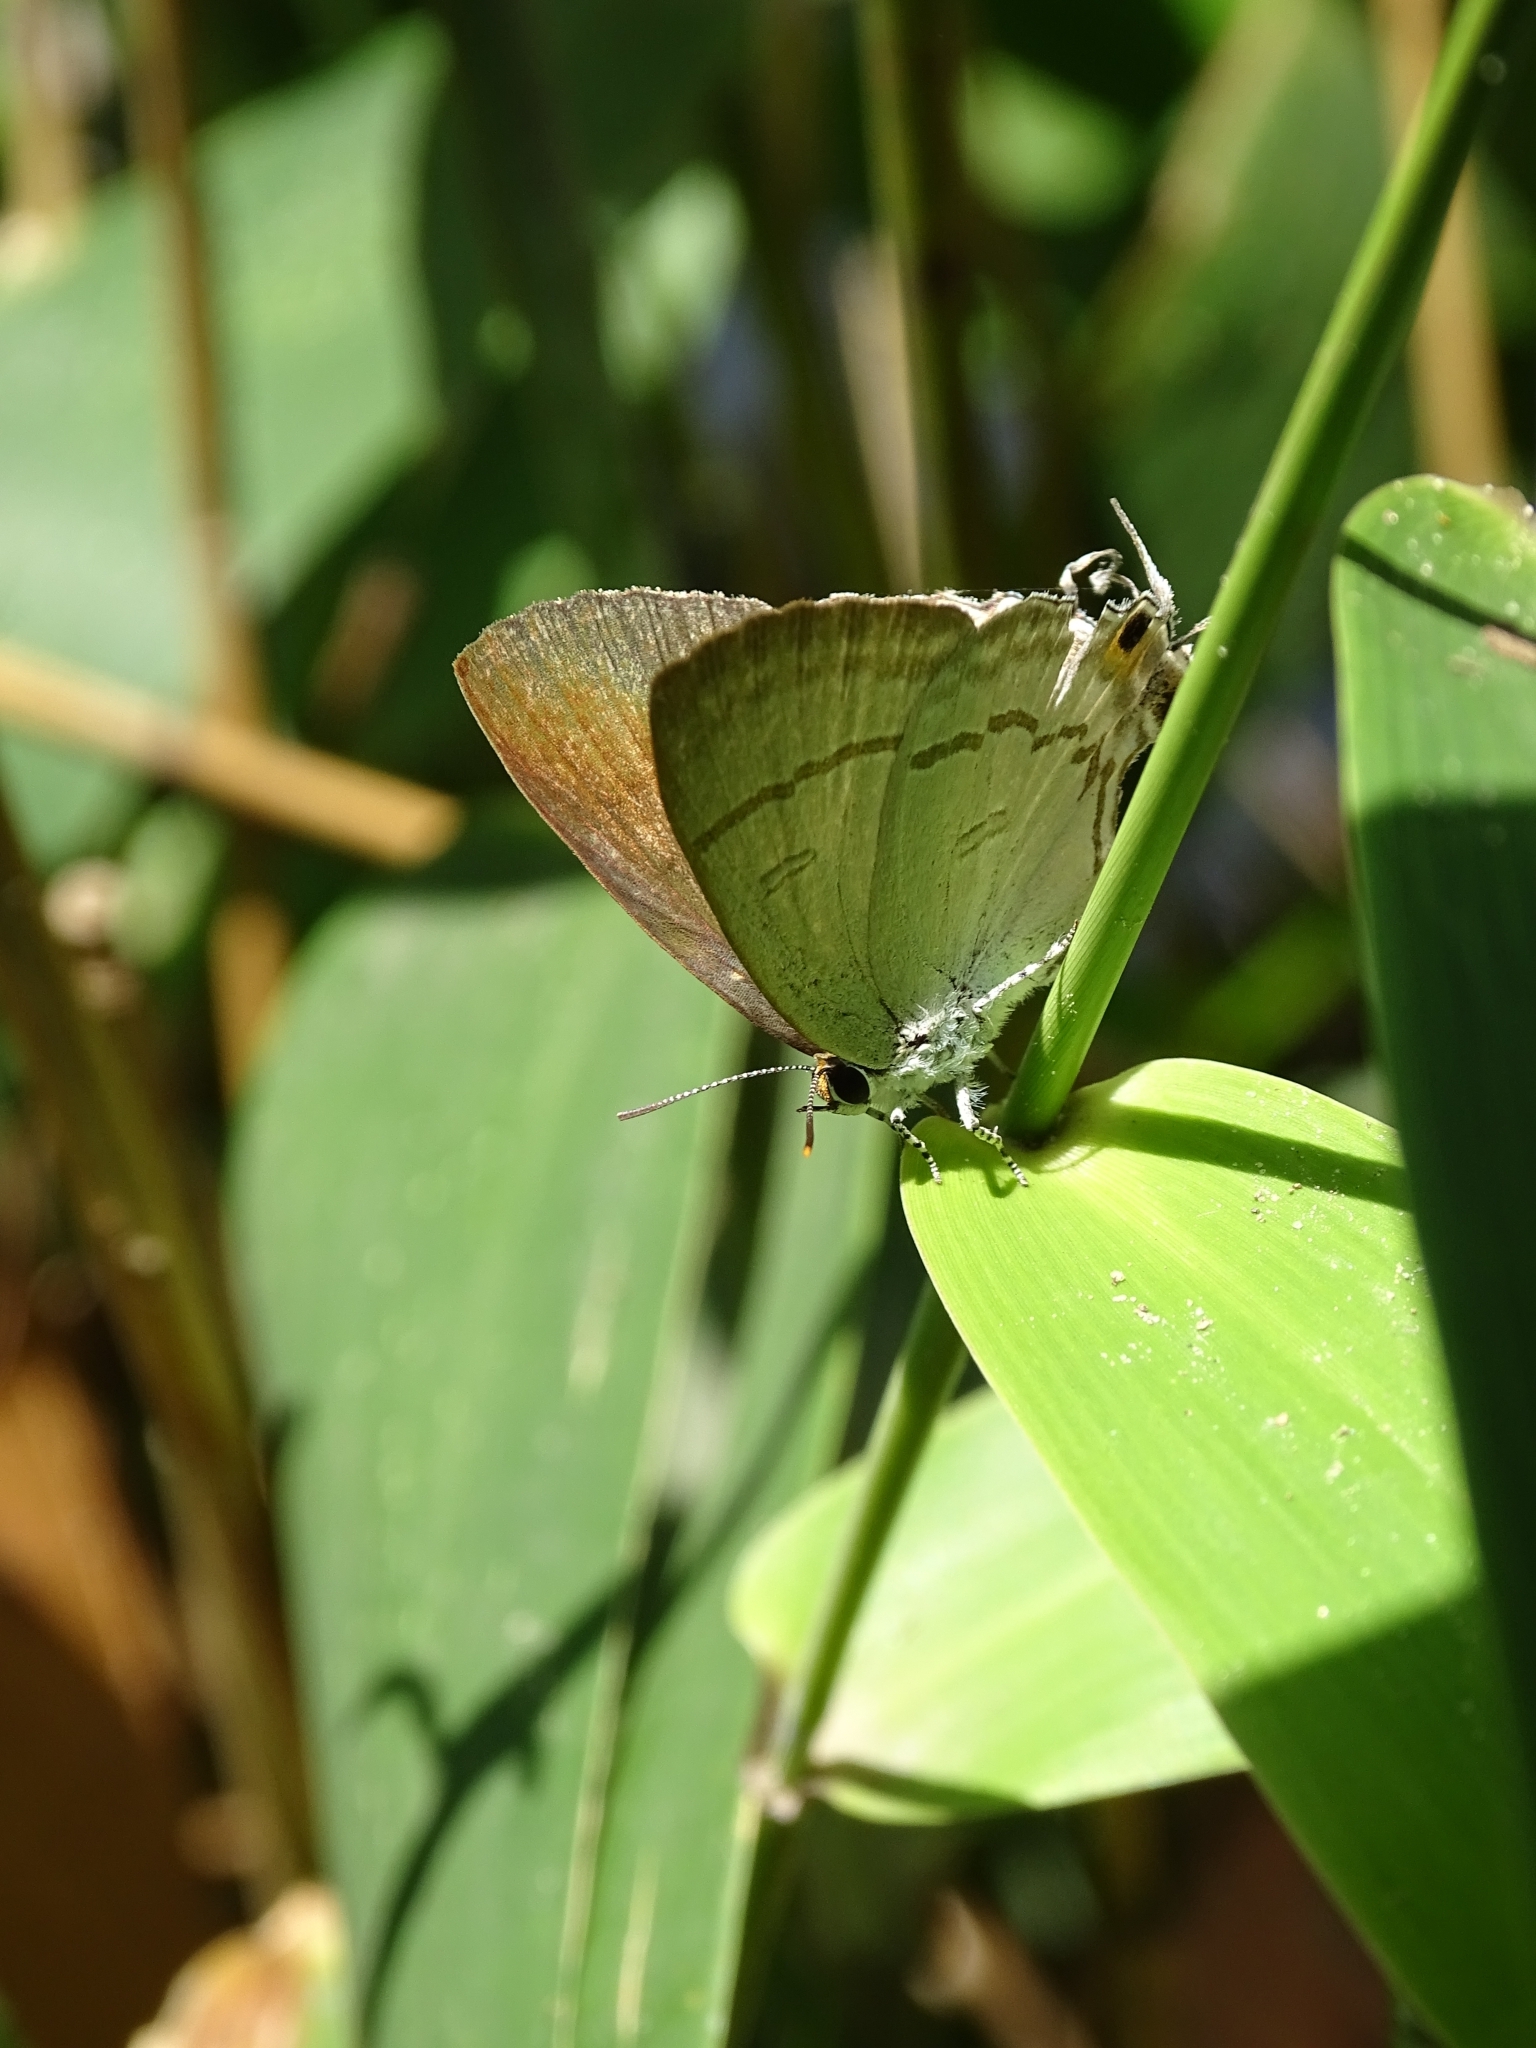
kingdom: Animalia
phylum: Arthropoda
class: Insecta
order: Lepidoptera
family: Lycaenidae
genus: Hypolycaena
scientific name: Hypolycaena erylus
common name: Common tit
